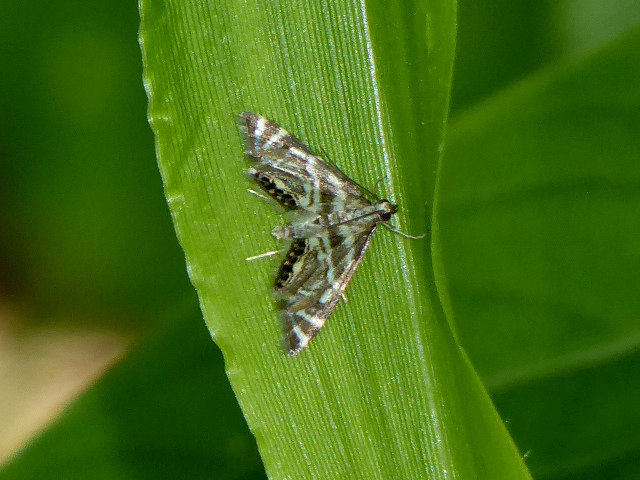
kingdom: Animalia
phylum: Arthropoda
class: Insecta
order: Lepidoptera
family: Crambidae
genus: Petrophila
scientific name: Petrophila canadensis
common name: Canadian petrophila
